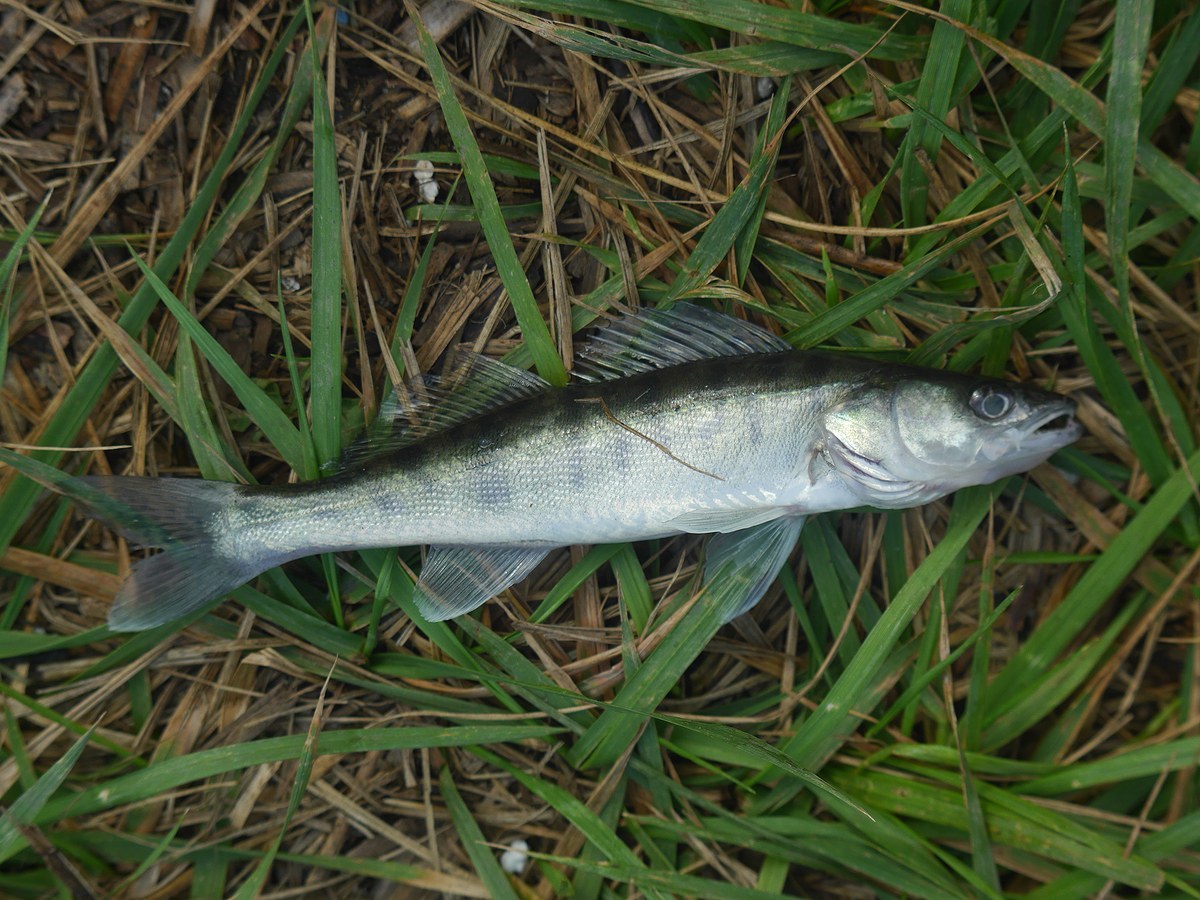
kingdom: Animalia
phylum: Chordata
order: Perciformes
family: Percidae
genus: Sander
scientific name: Sander lucioperca
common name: Pikeperch
